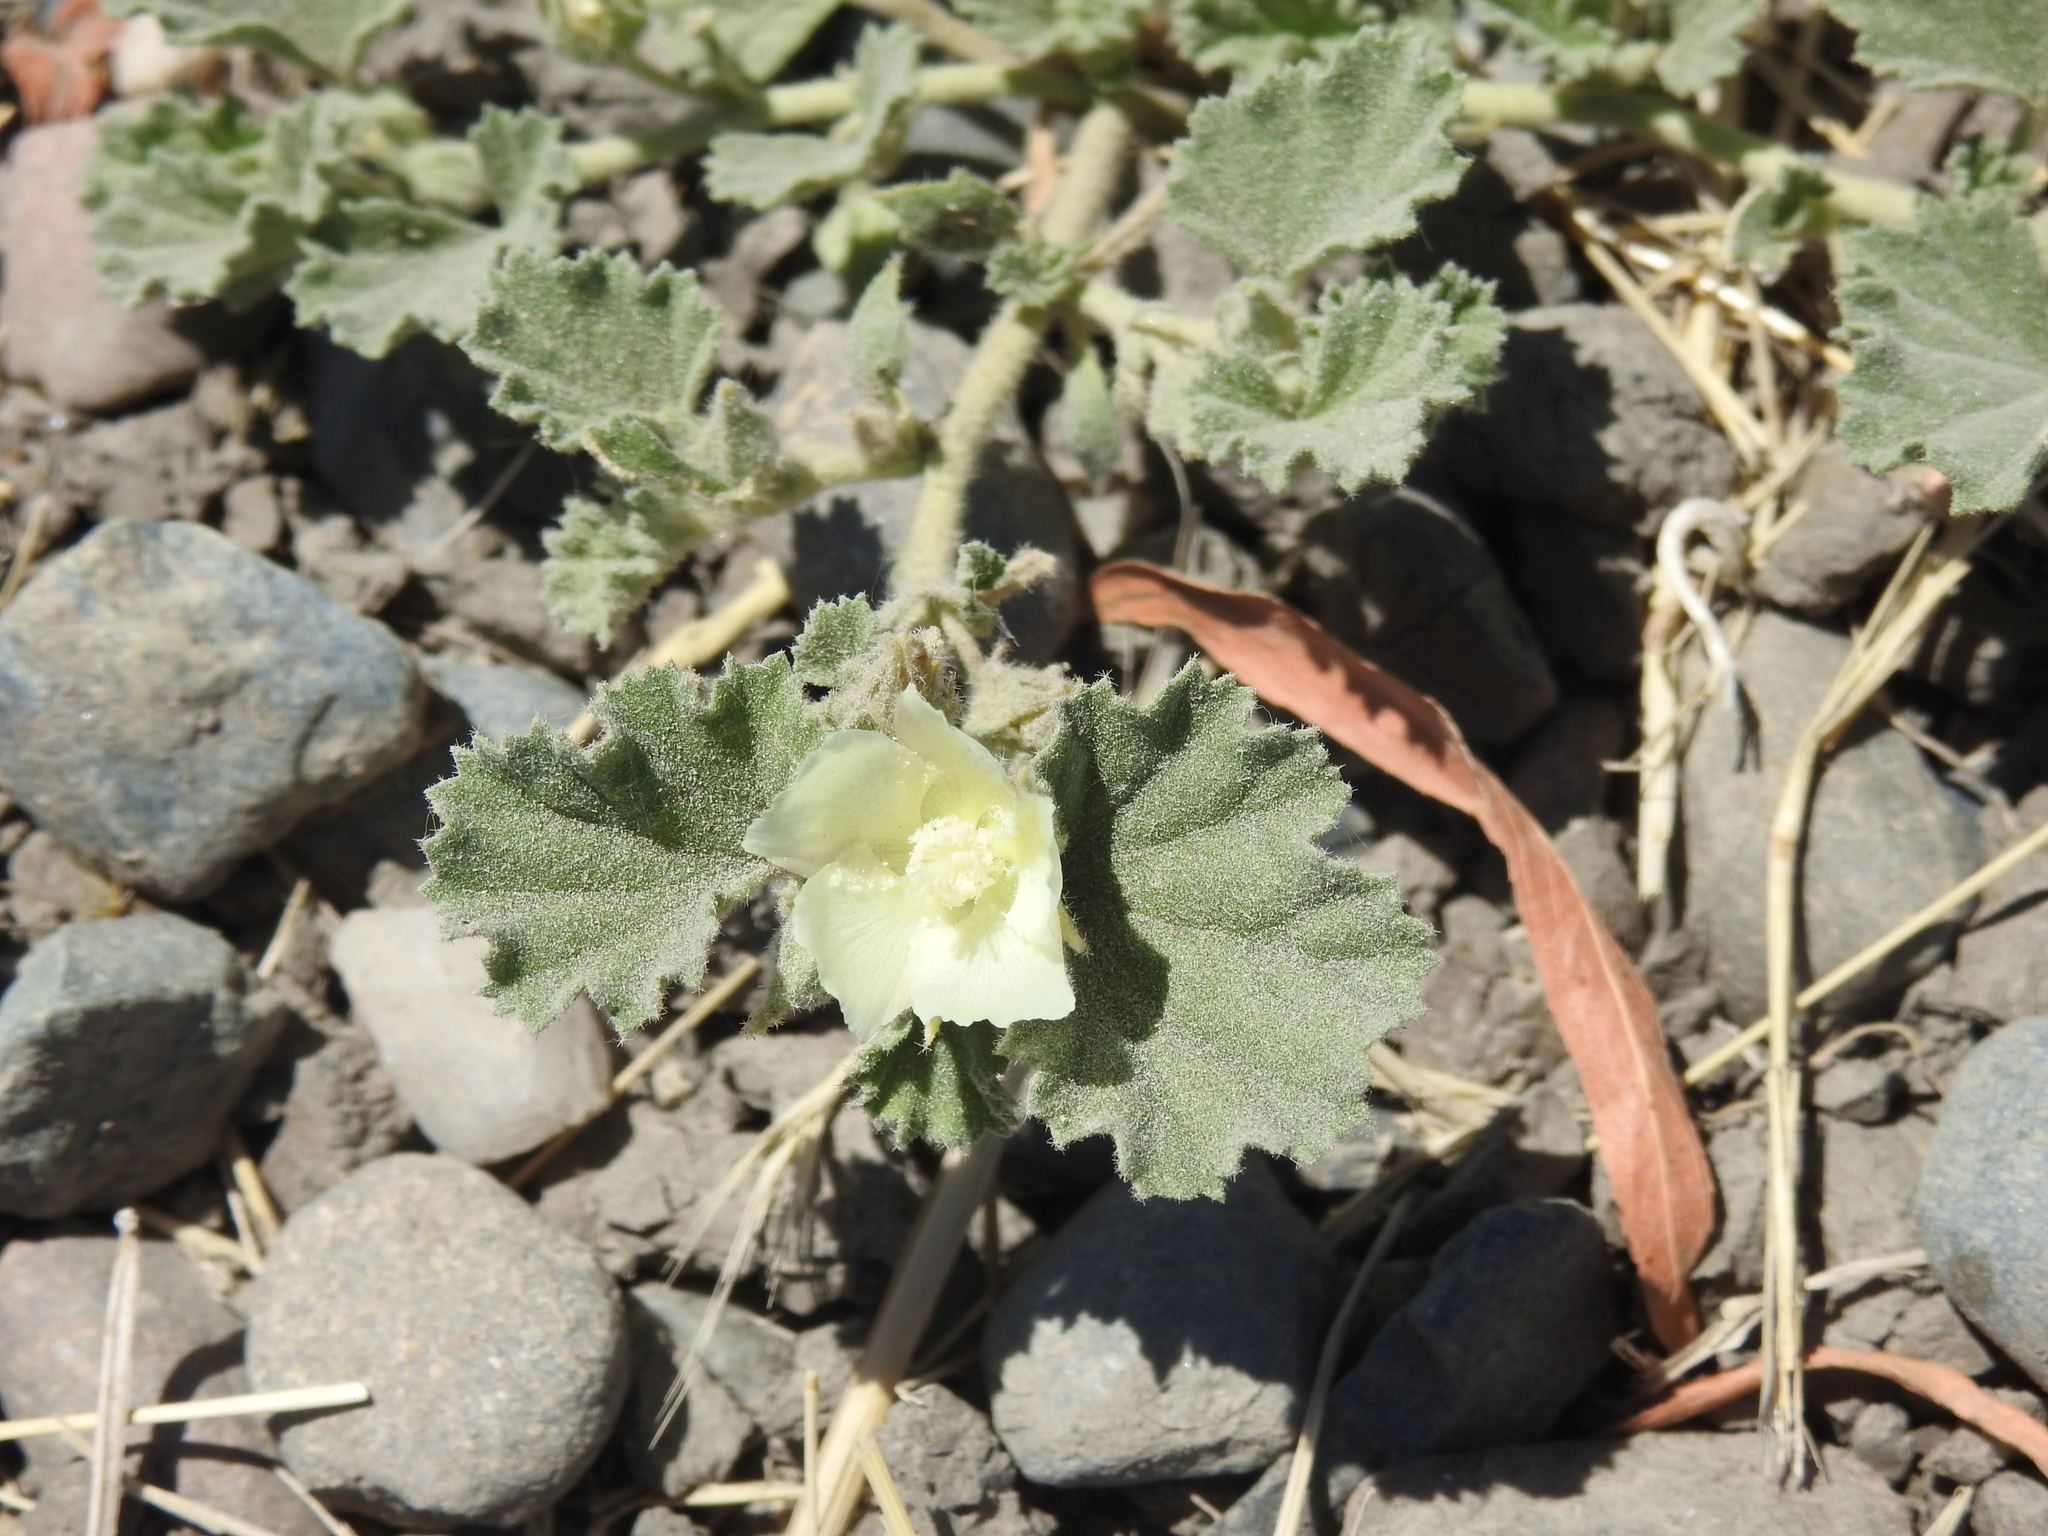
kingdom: Plantae
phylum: Tracheophyta
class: Magnoliopsida
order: Malvales
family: Malvaceae
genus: Malvella
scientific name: Malvella leprosa
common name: Alkali-mallow
